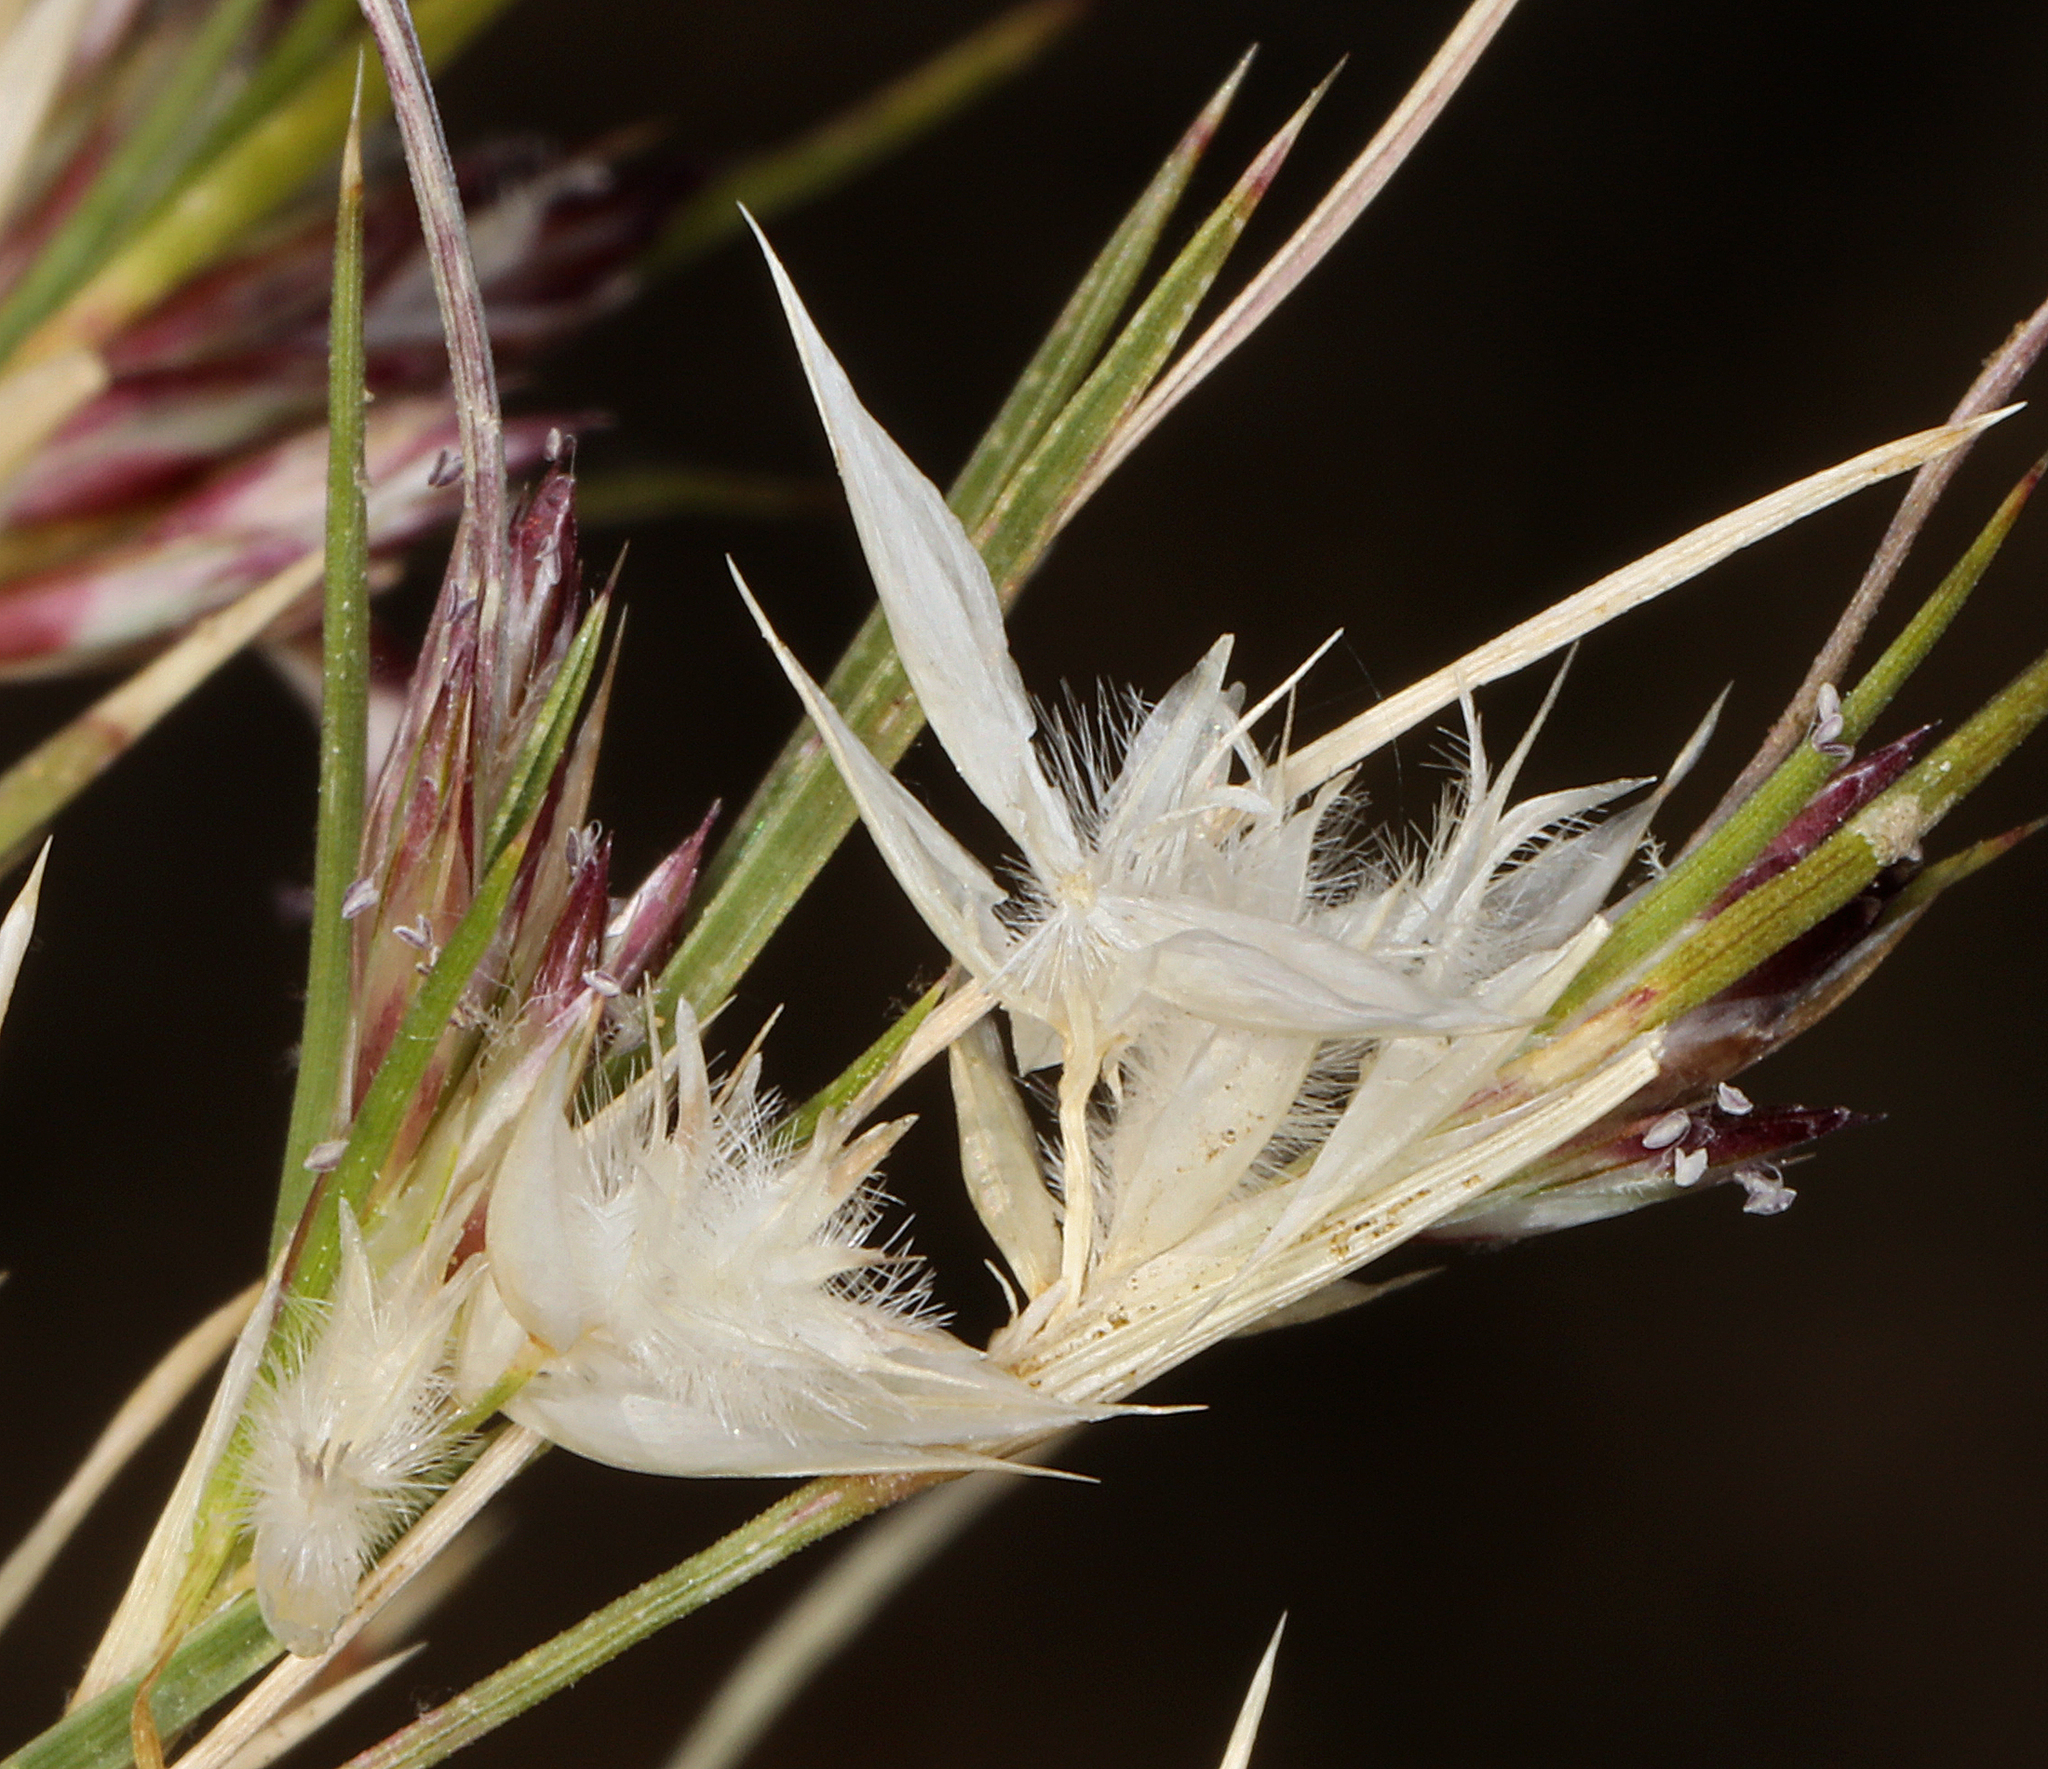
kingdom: Plantae
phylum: Tracheophyta
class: Liliopsida
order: Poales
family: Poaceae
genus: Dasyochloa
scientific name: Dasyochloa pulchella
